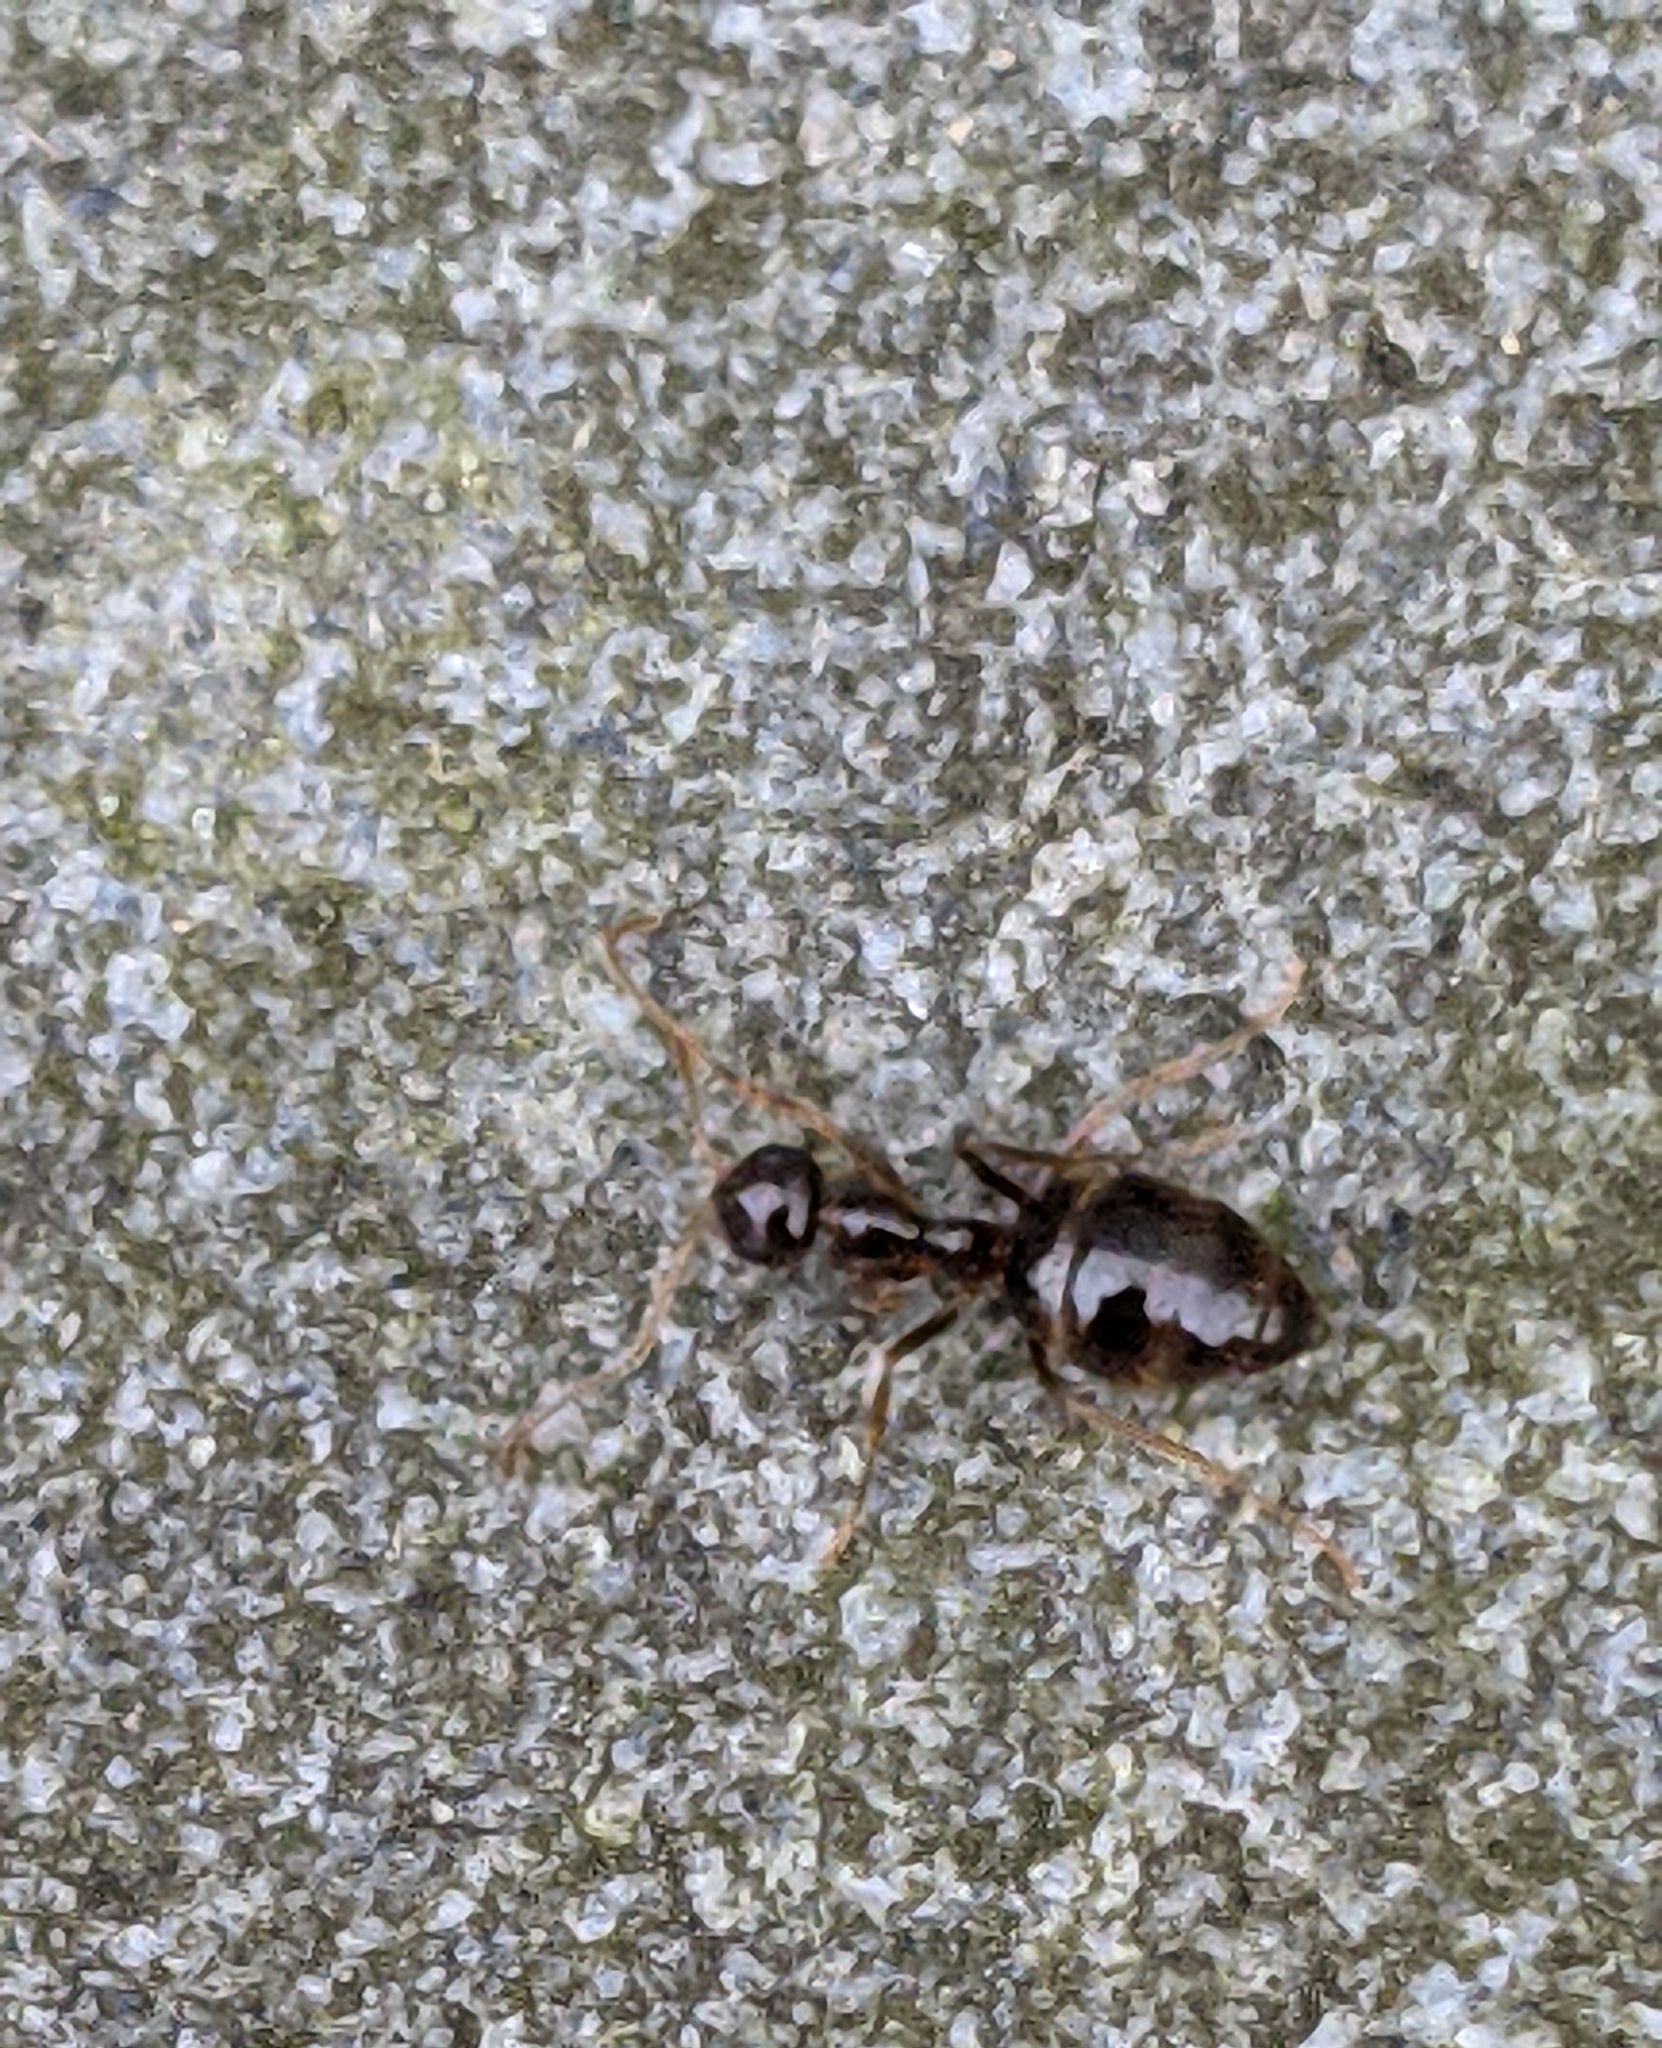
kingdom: Animalia
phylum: Arthropoda
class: Insecta
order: Hymenoptera
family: Formicidae
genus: Prenolepis
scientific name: Prenolepis imparis
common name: Small honey ant
